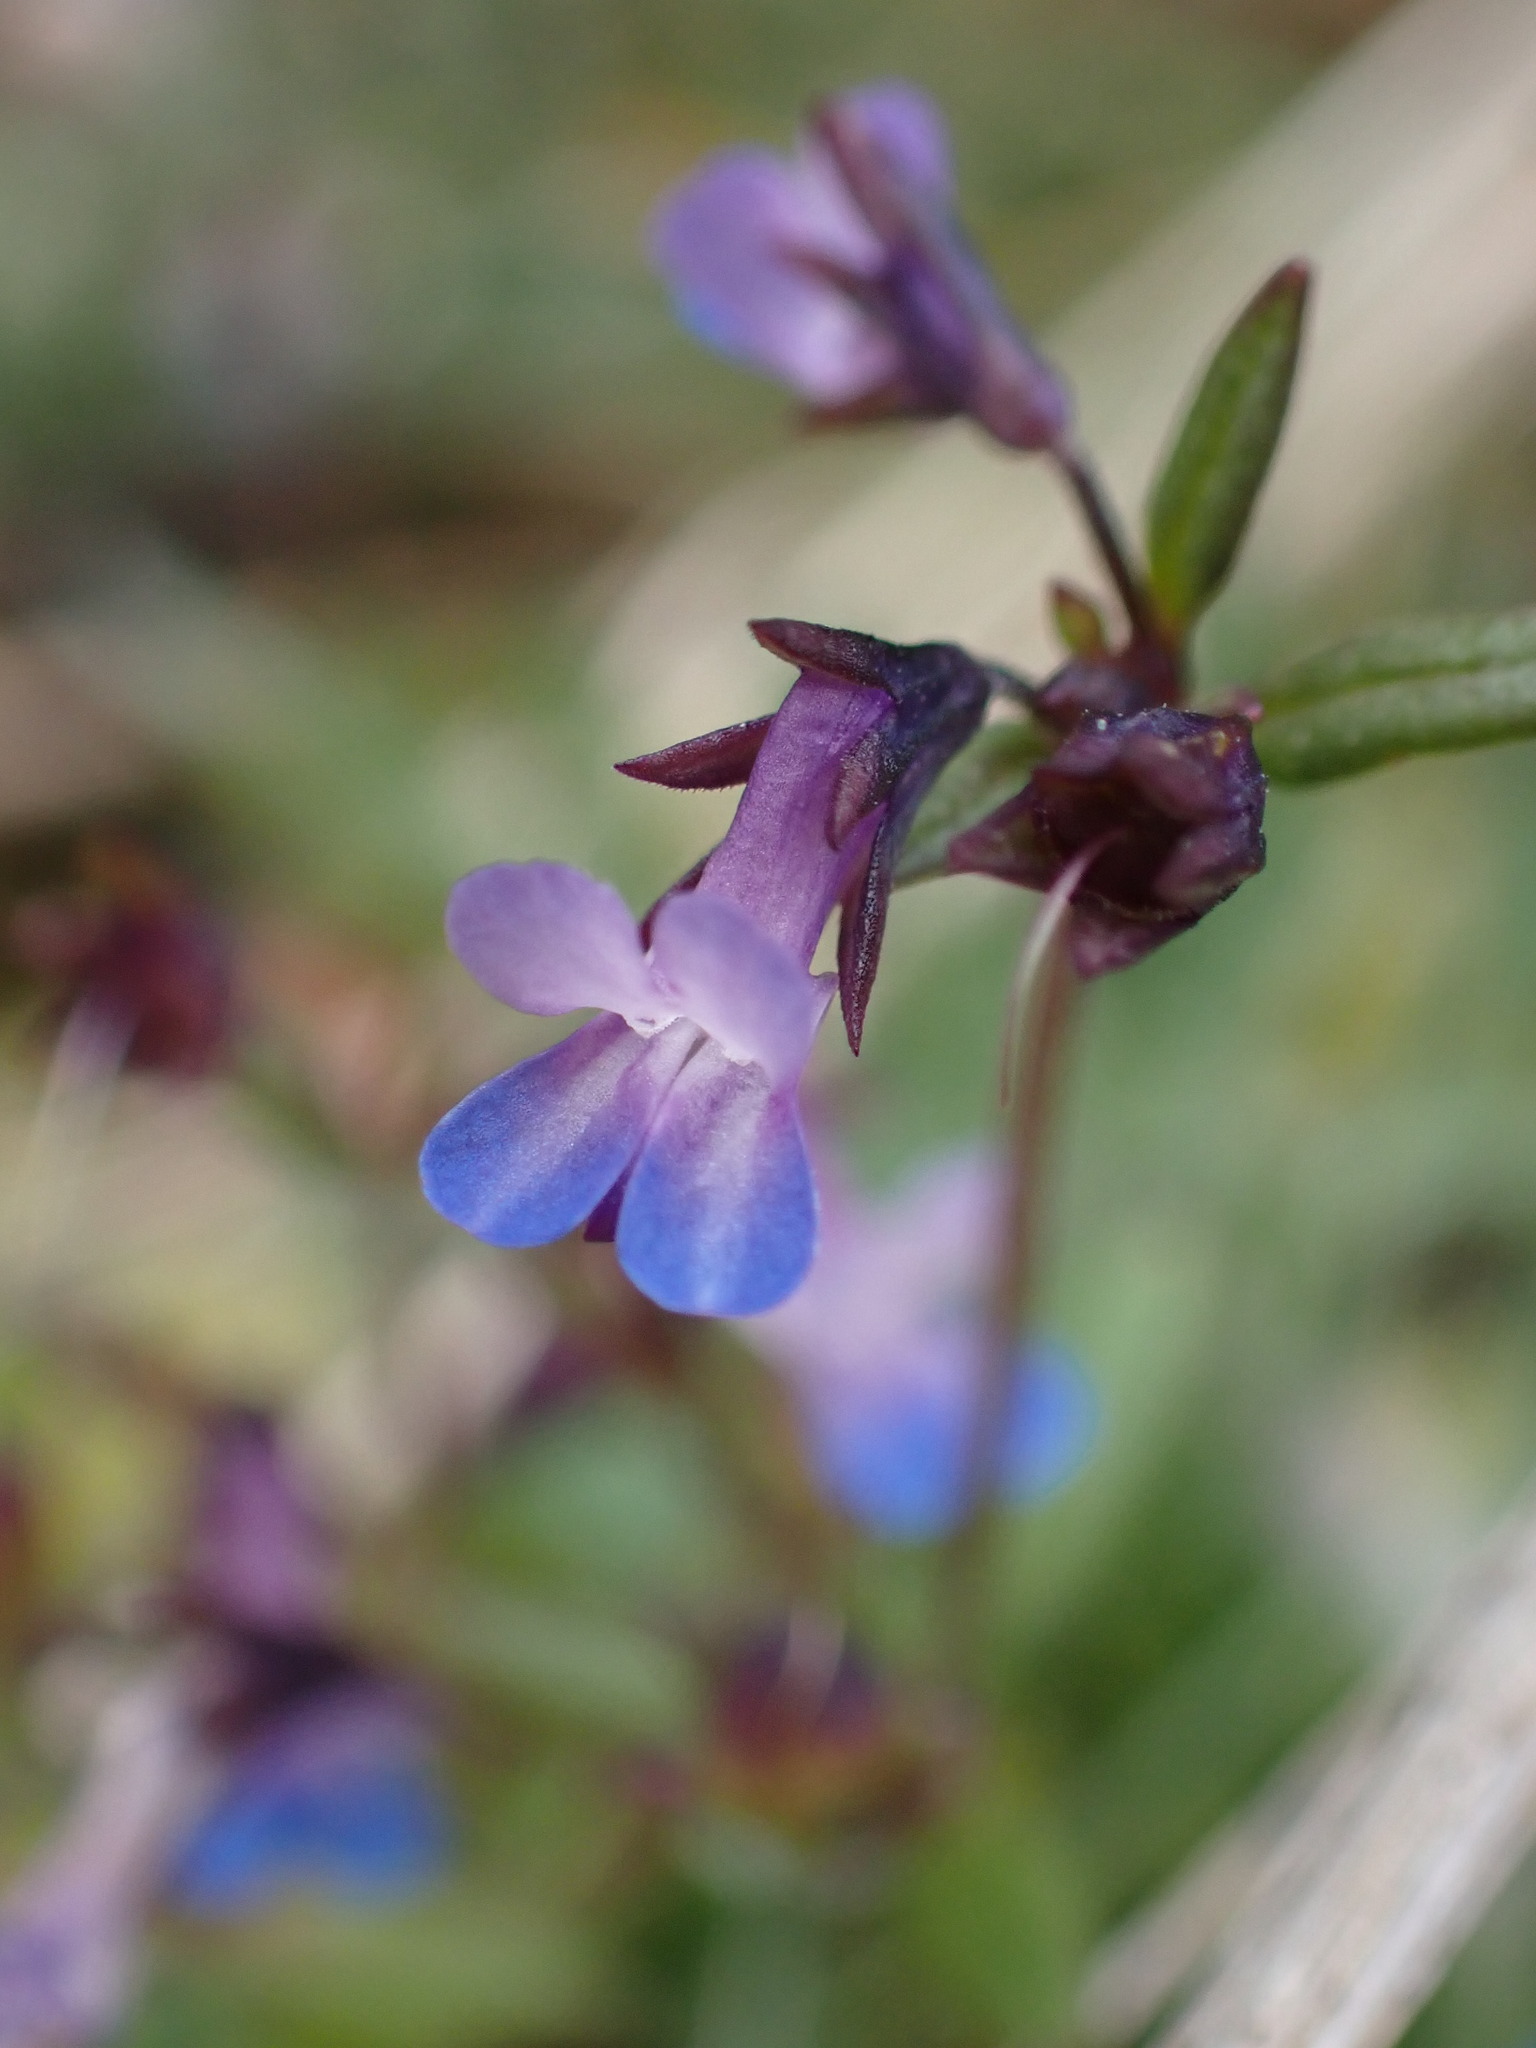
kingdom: Plantae
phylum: Tracheophyta
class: Magnoliopsida
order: Lamiales
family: Plantaginaceae
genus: Collinsia
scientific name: Collinsia parviflora
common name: Blue-lips
